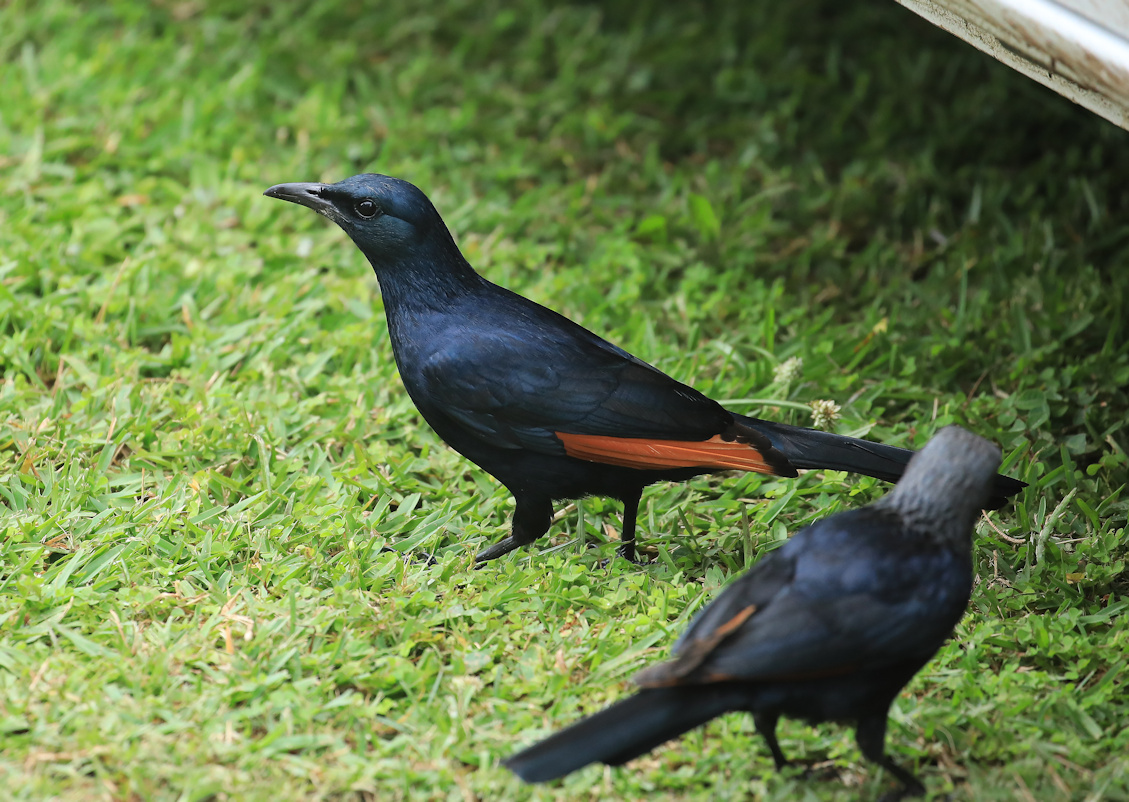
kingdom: Animalia
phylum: Chordata
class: Aves
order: Passeriformes
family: Sturnidae
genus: Onychognathus
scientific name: Onychognathus morio
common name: Red-winged starling
